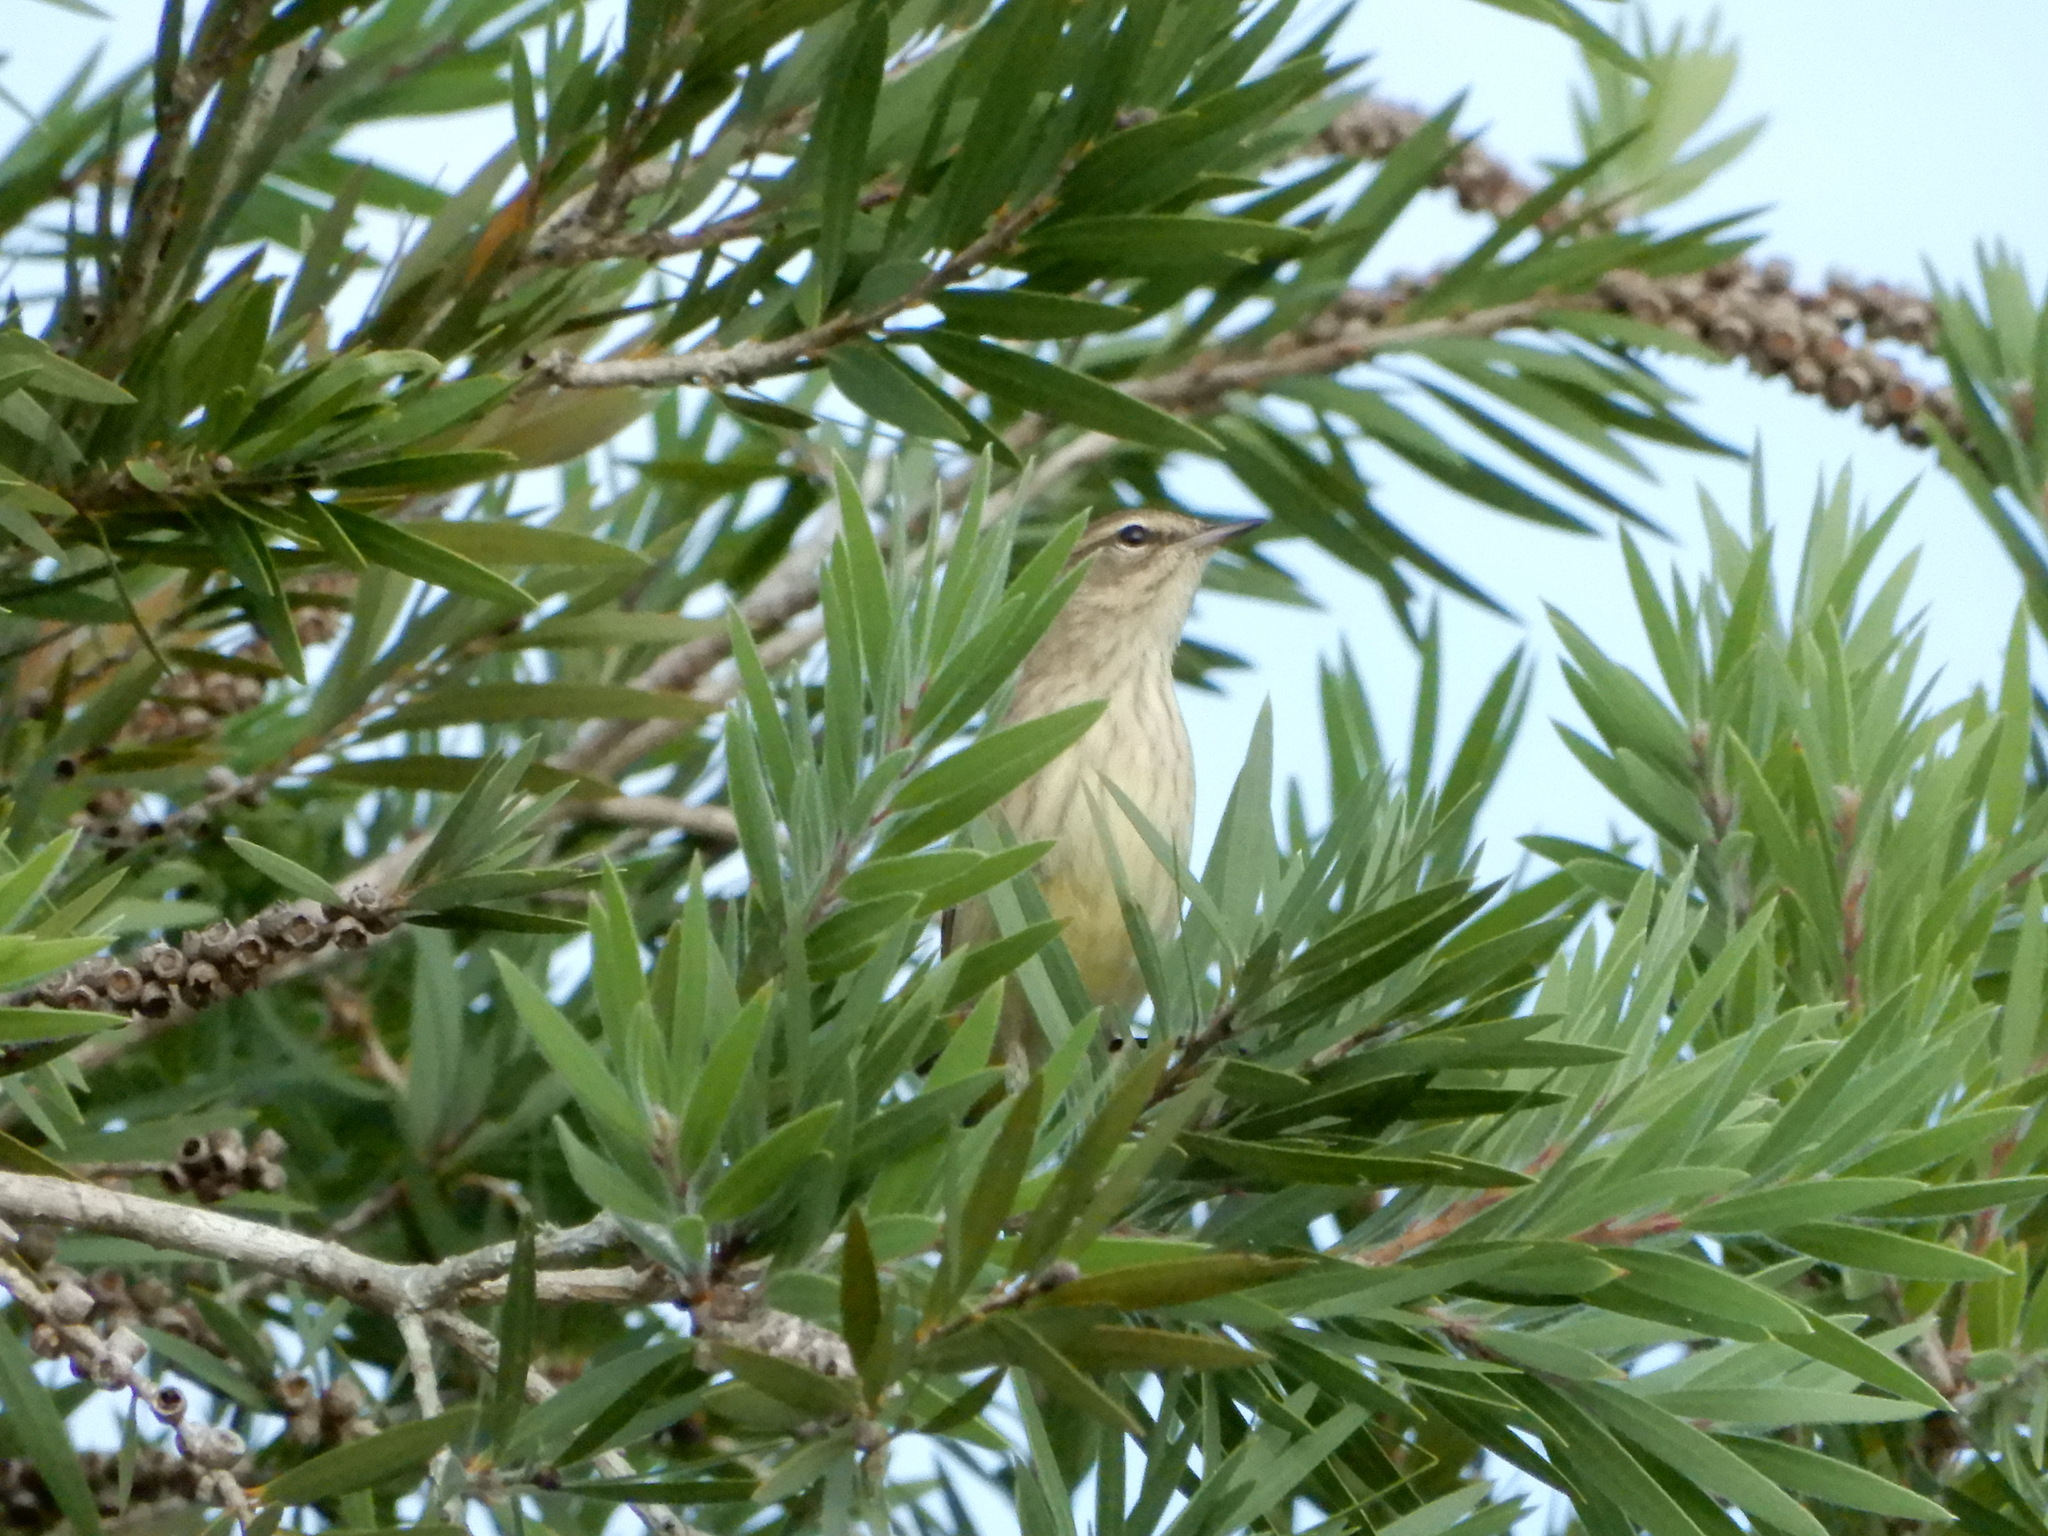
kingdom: Animalia
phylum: Chordata
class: Aves
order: Passeriformes
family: Parulidae
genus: Setophaga
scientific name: Setophaga palmarum
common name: Palm warbler
